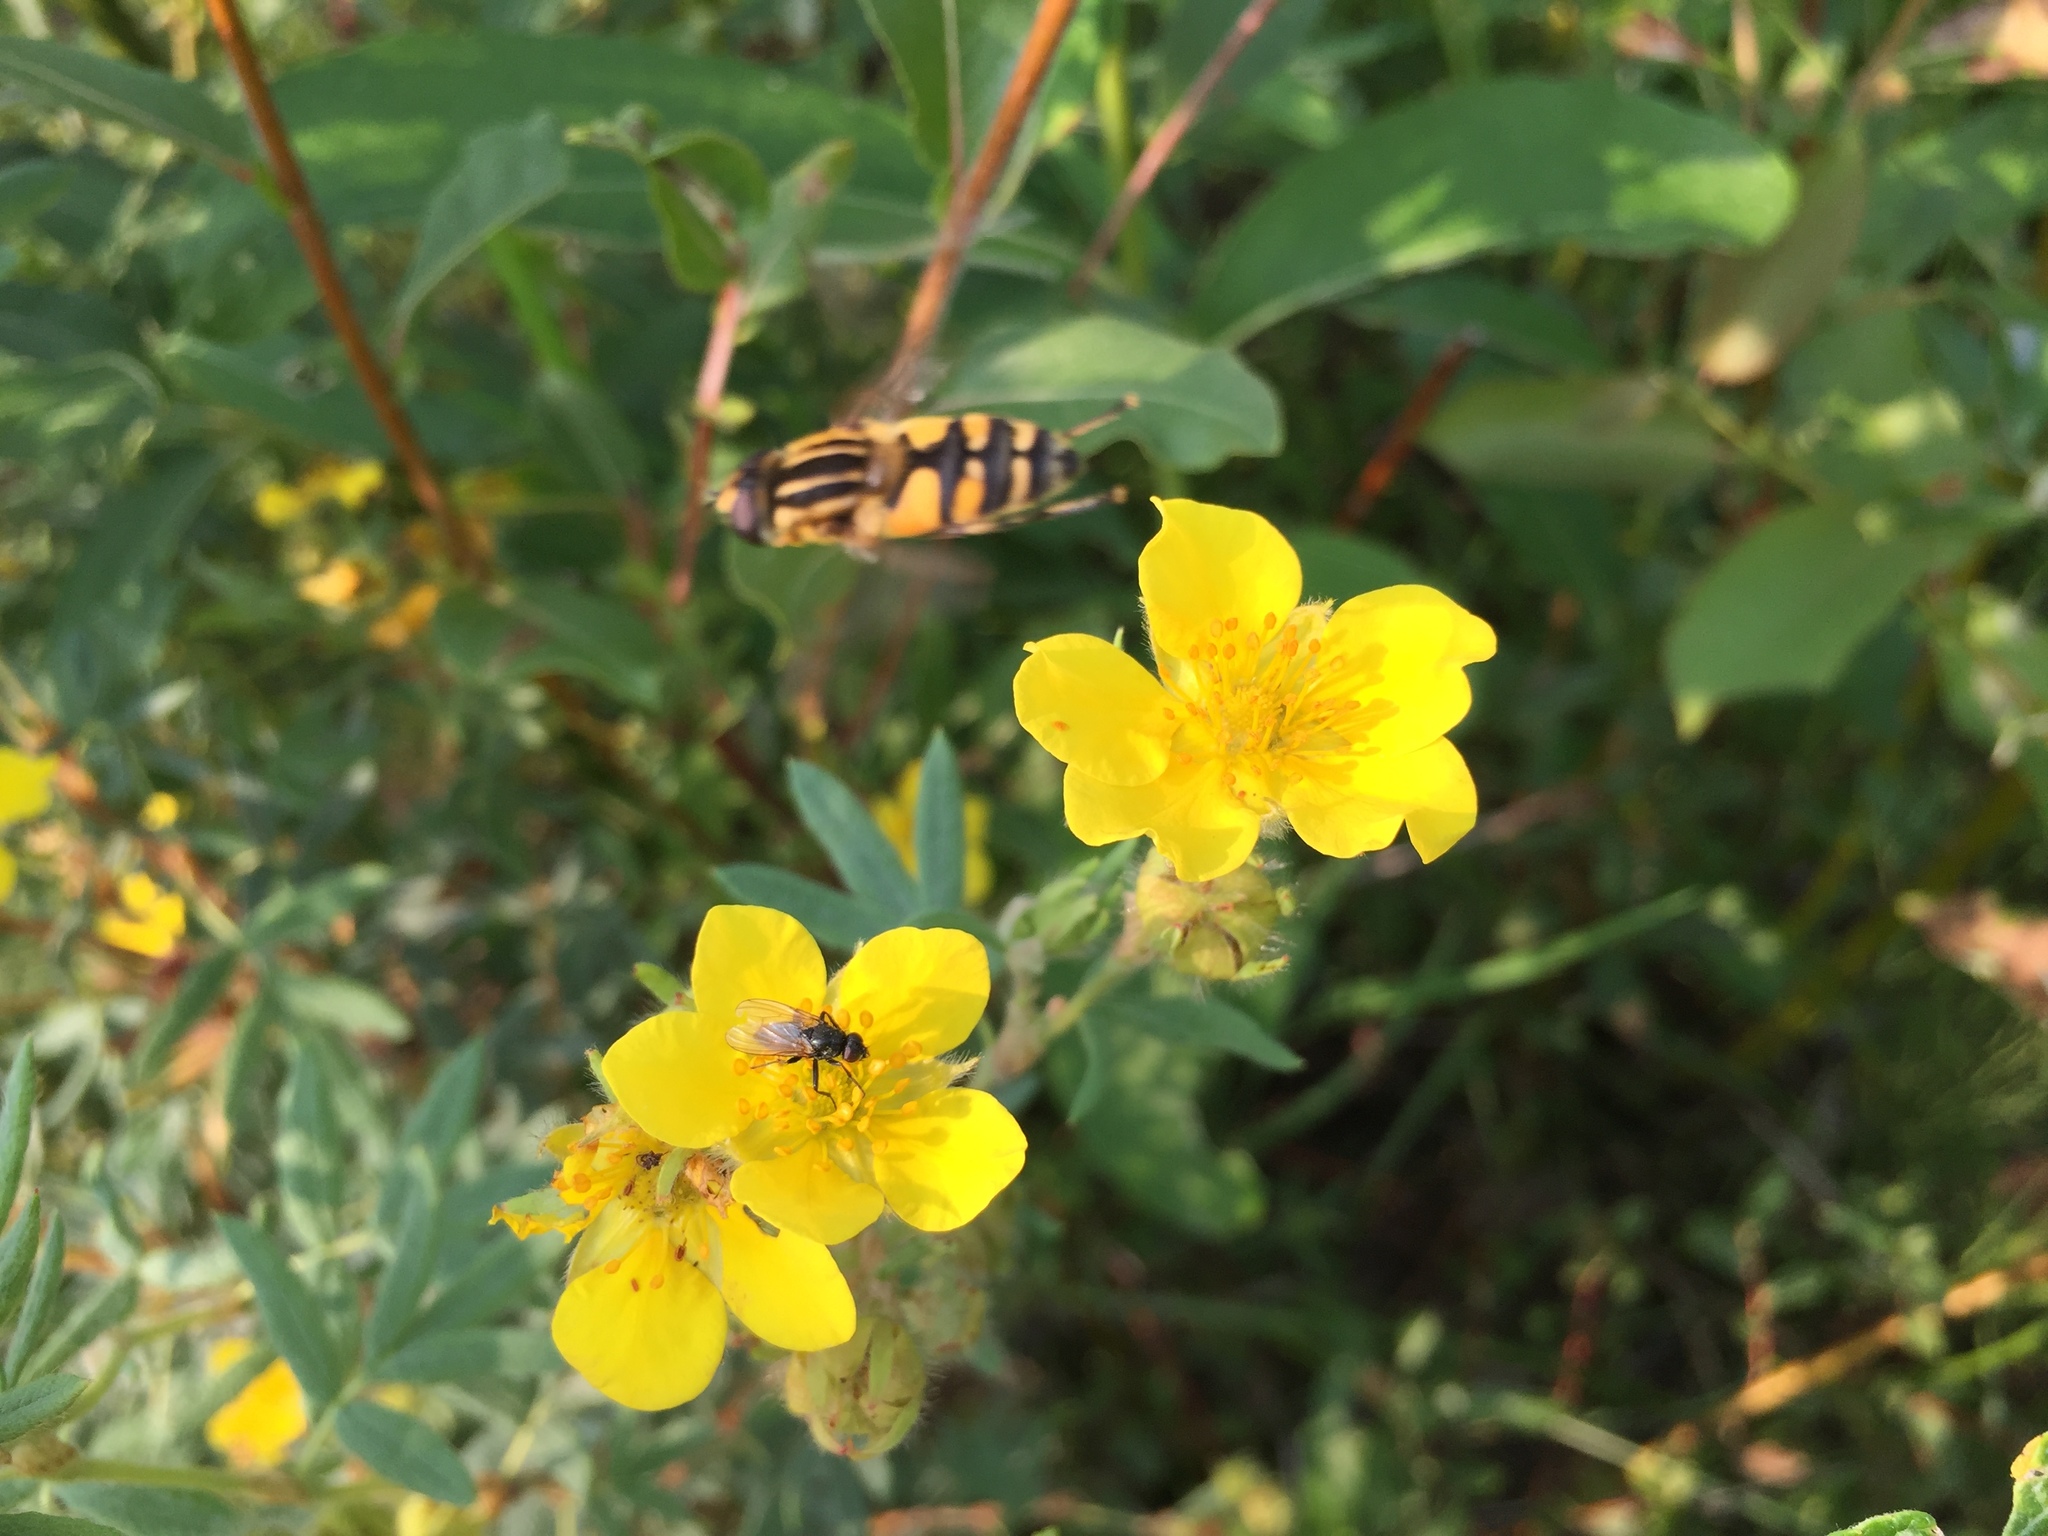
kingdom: Animalia
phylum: Arthropoda
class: Insecta
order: Diptera
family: Syrphidae
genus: Helophilus
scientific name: Helophilus intentus
